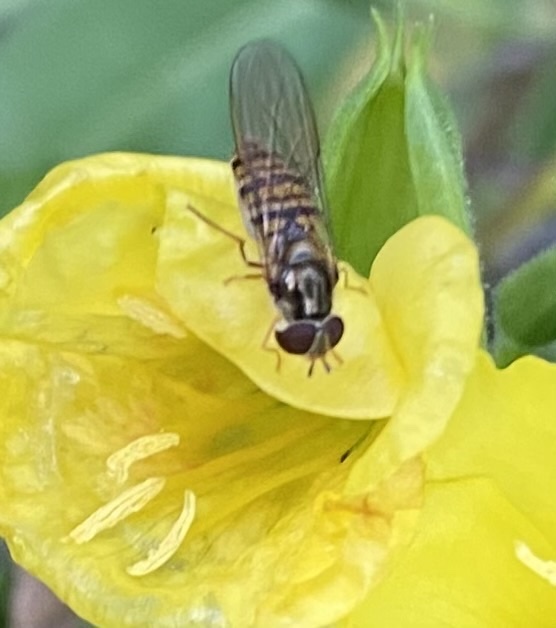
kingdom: Animalia
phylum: Arthropoda
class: Insecta
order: Diptera
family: Syrphidae
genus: Episyrphus
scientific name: Episyrphus balteatus
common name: Marmalade hoverfly
